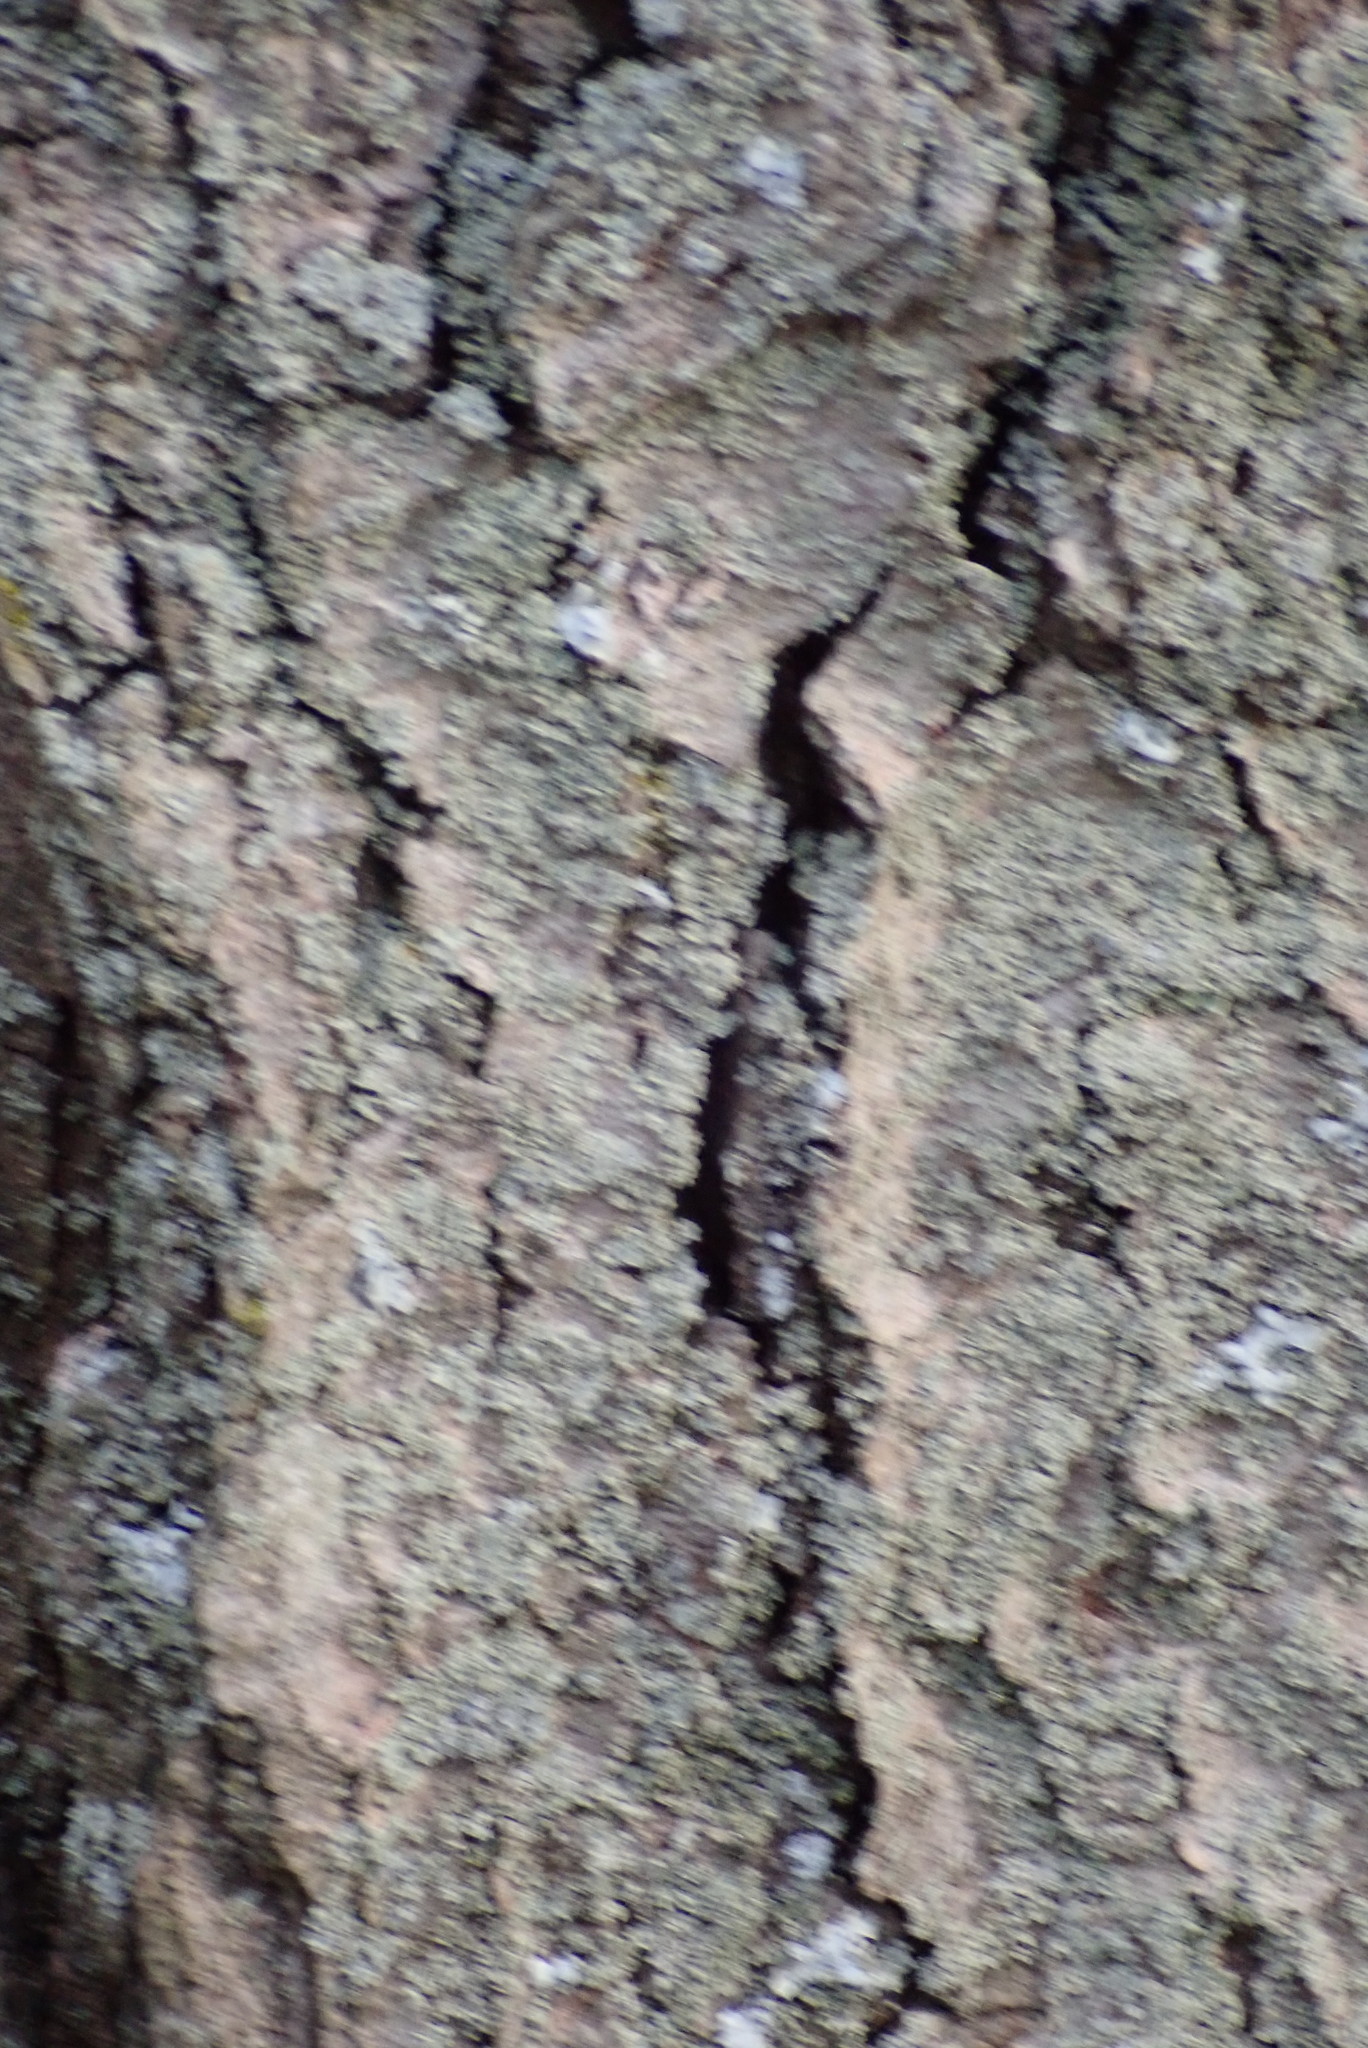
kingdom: Plantae
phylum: Tracheophyta
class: Magnoliopsida
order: Sapindales
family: Sapindaceae
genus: Acer
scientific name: Acer rubrum
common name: Red maple
